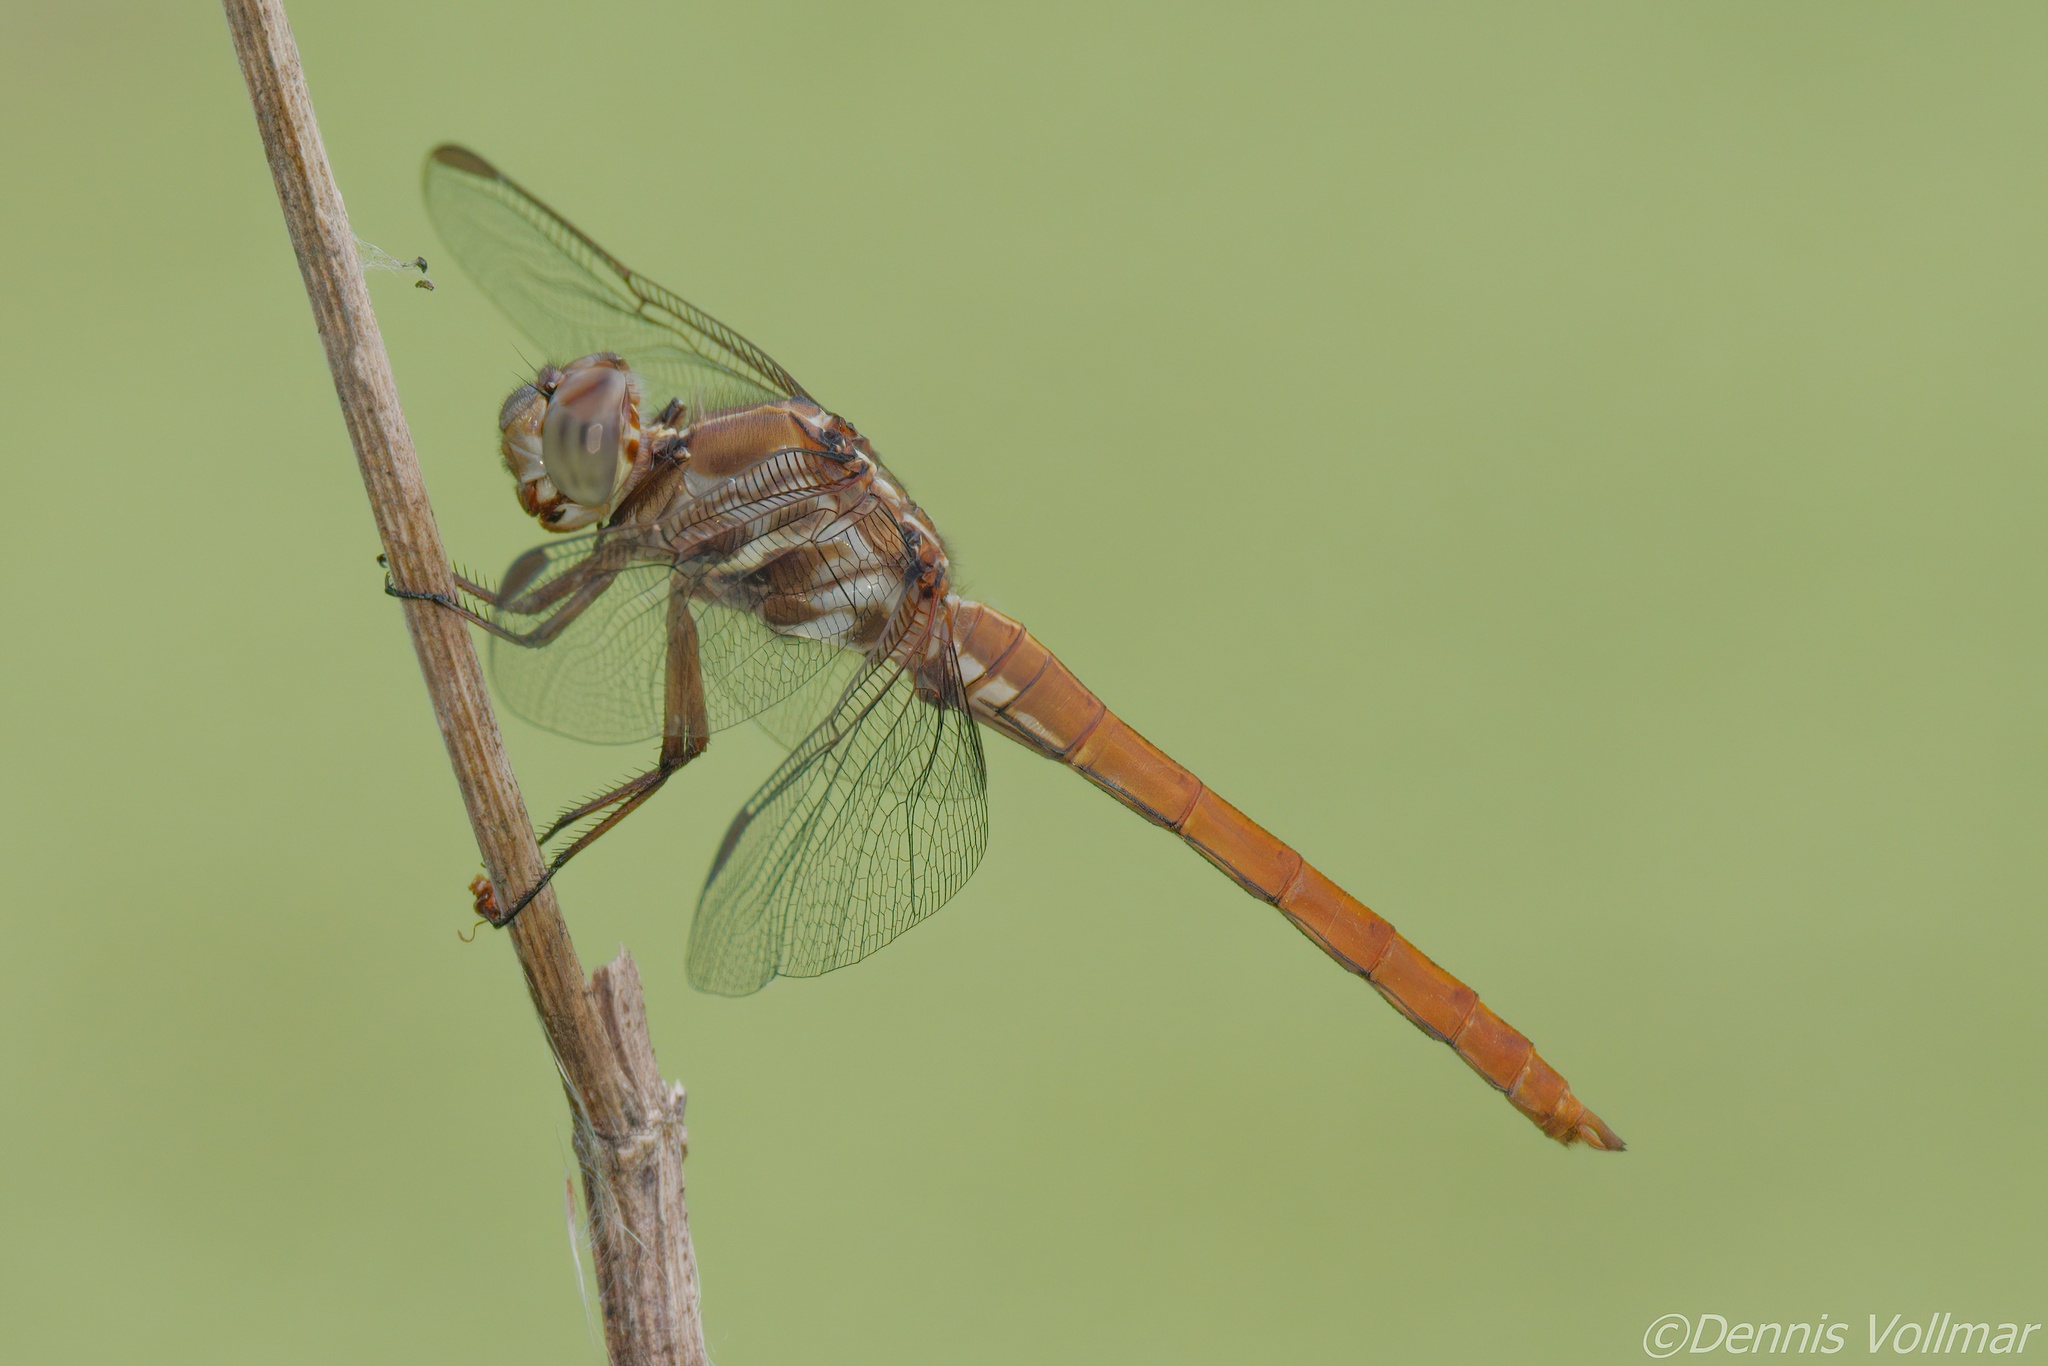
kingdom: Animalia
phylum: Arthropoda
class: Insecta
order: Odonata
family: Libellulidae
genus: Orthemis
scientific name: Orthemis ferruginea
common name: Roseate skimmer
